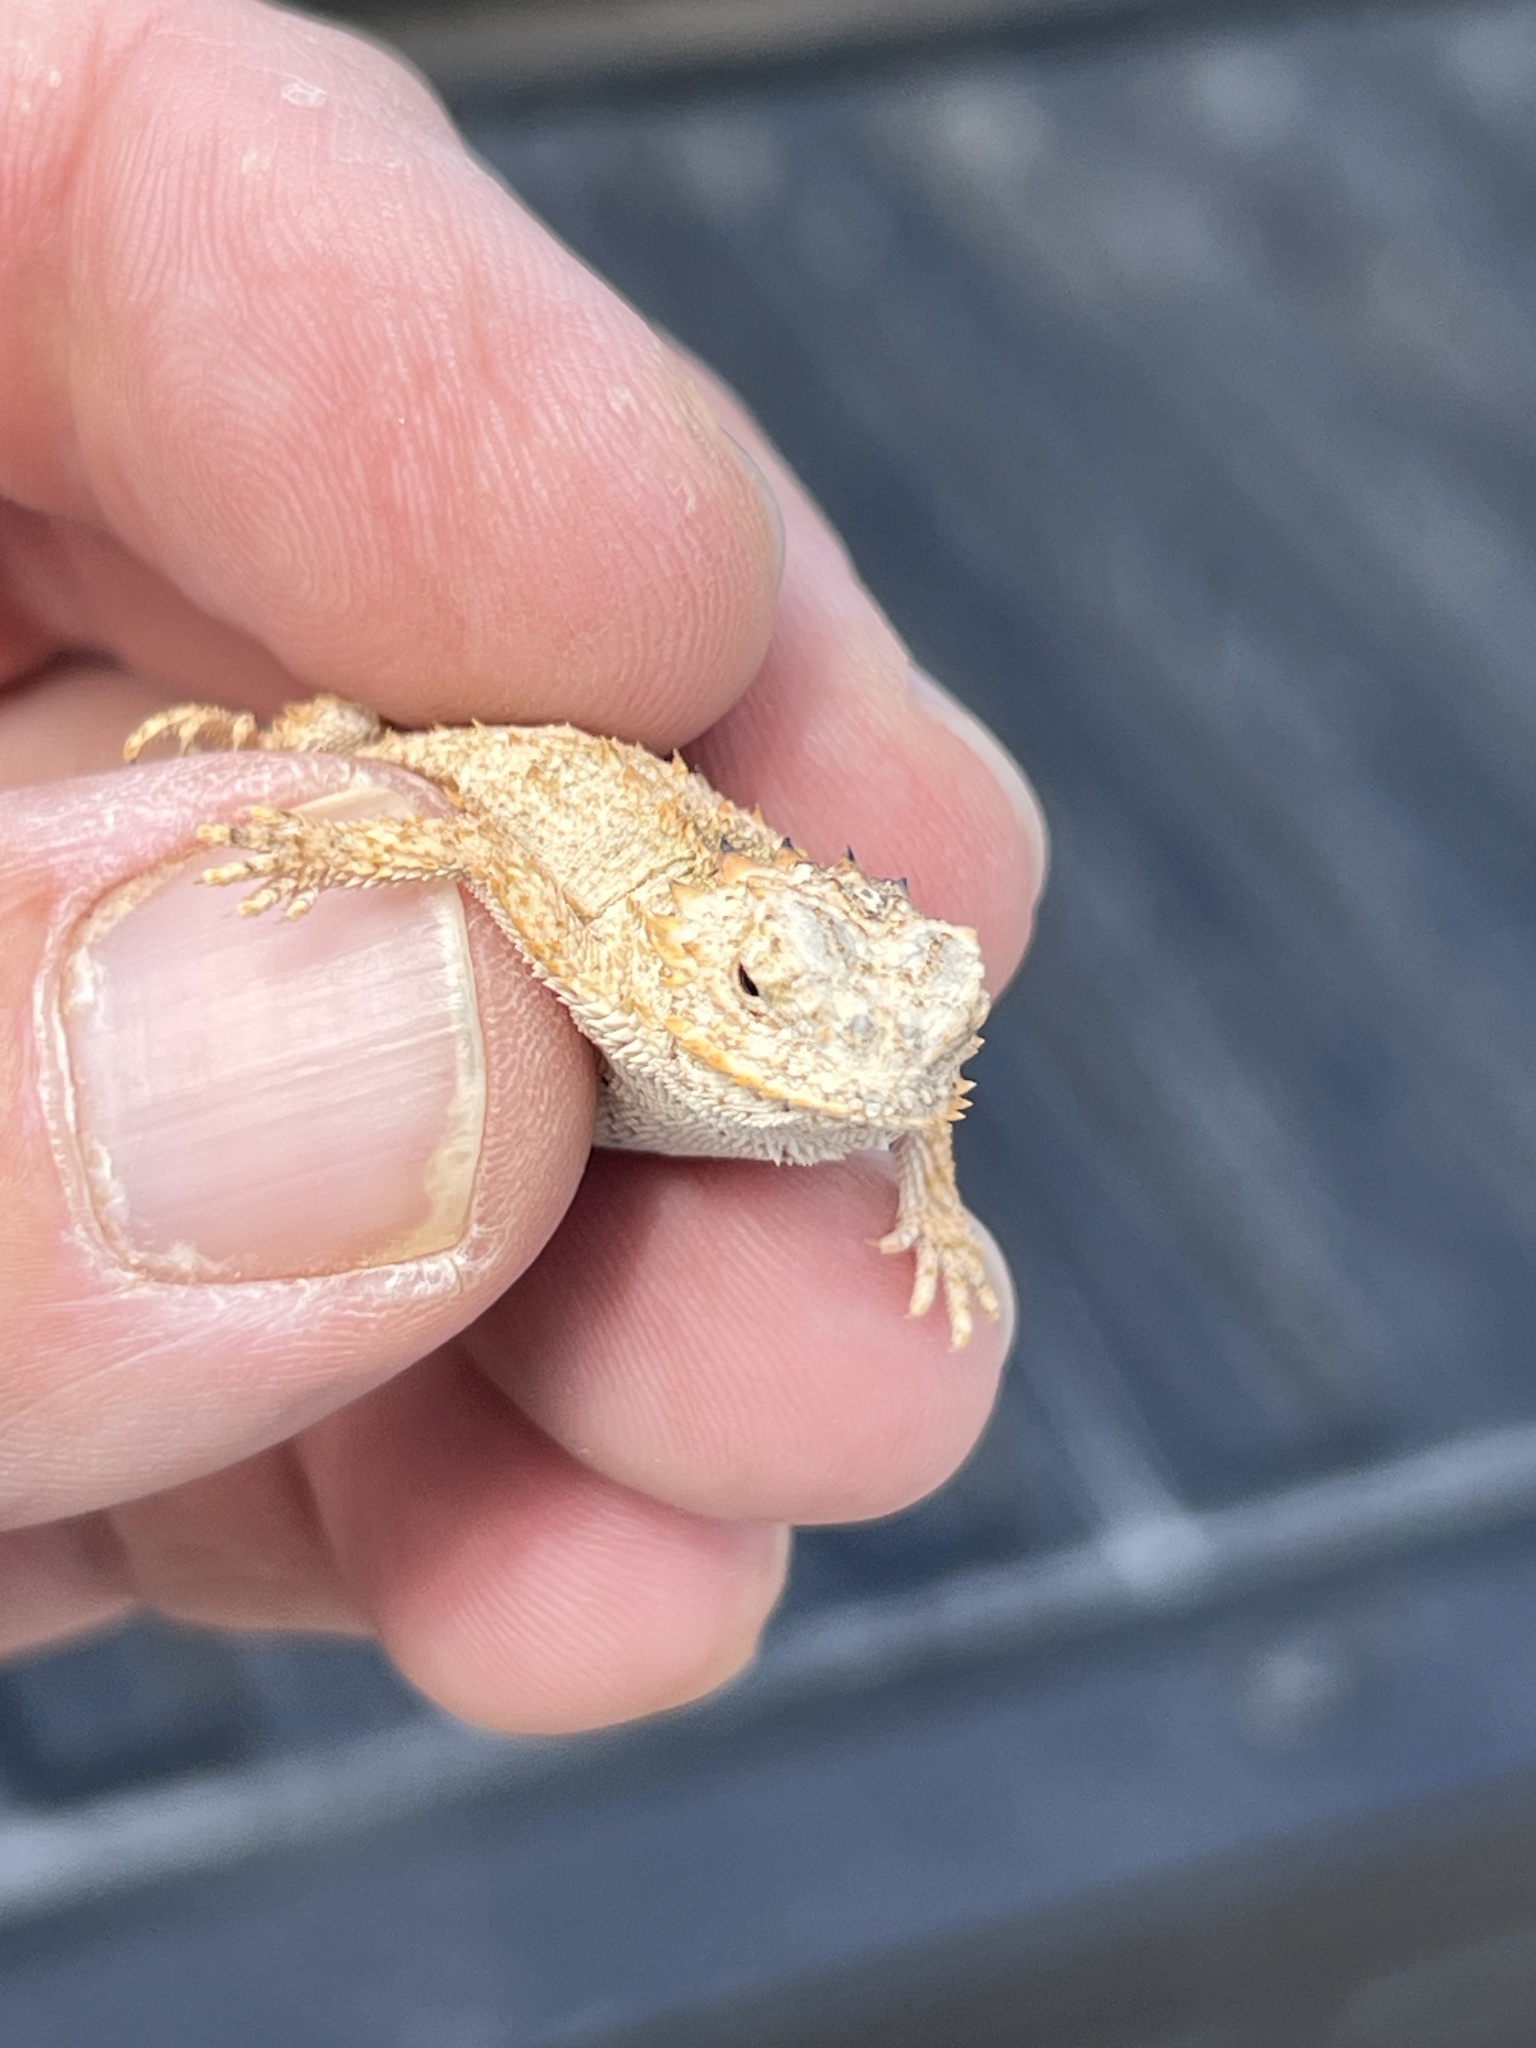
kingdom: Animalia
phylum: Chordata
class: Squamata
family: Phrynosomatidae
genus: Phrynosoma
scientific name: Phrynosoma solare
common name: Regal horned lizard
